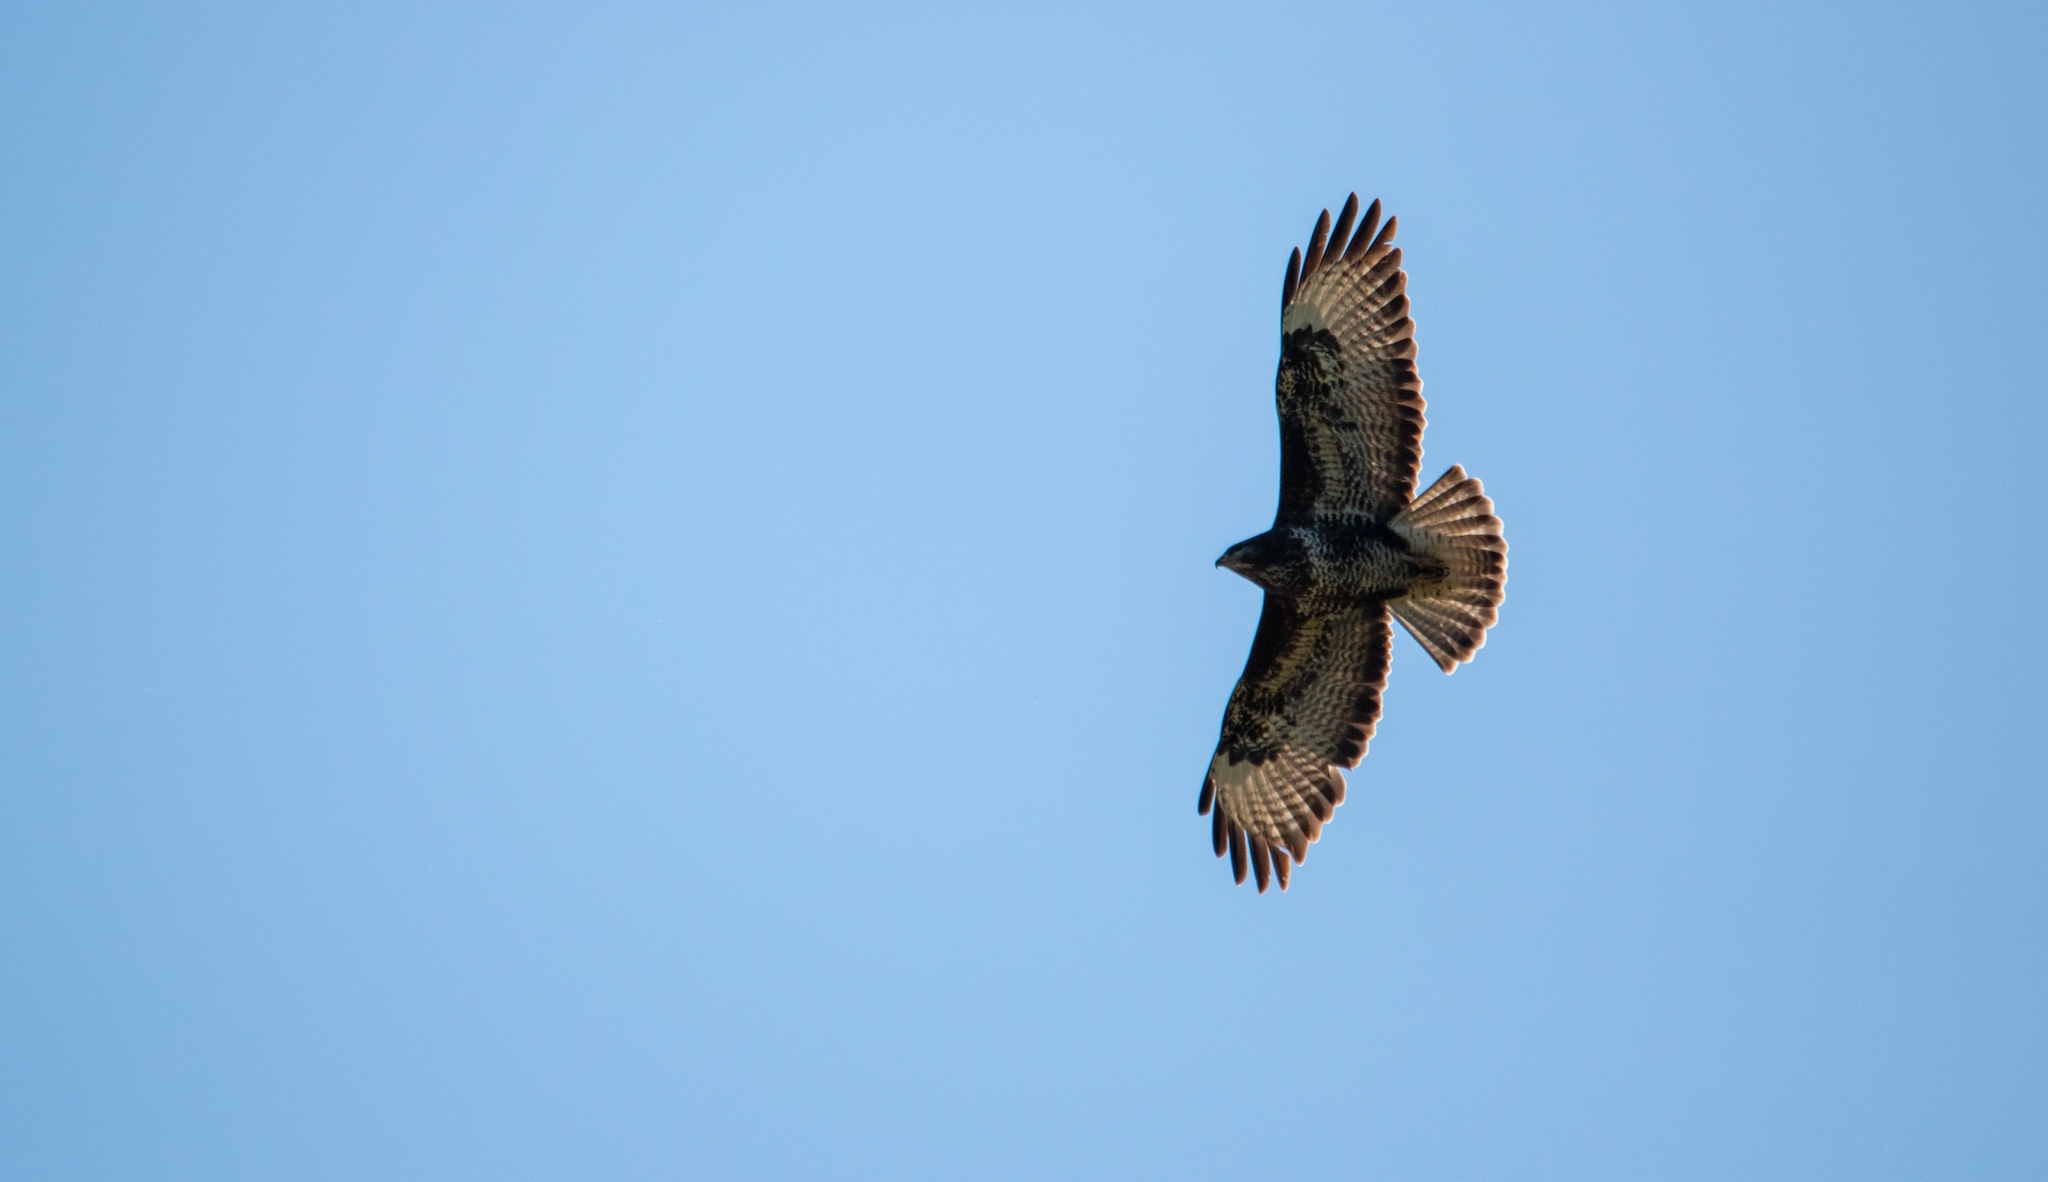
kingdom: Animalia
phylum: Chordata
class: Aves
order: Accipitriformes
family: Accipitridae
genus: Buteo
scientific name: Buteo buteo
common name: Common buzzard
